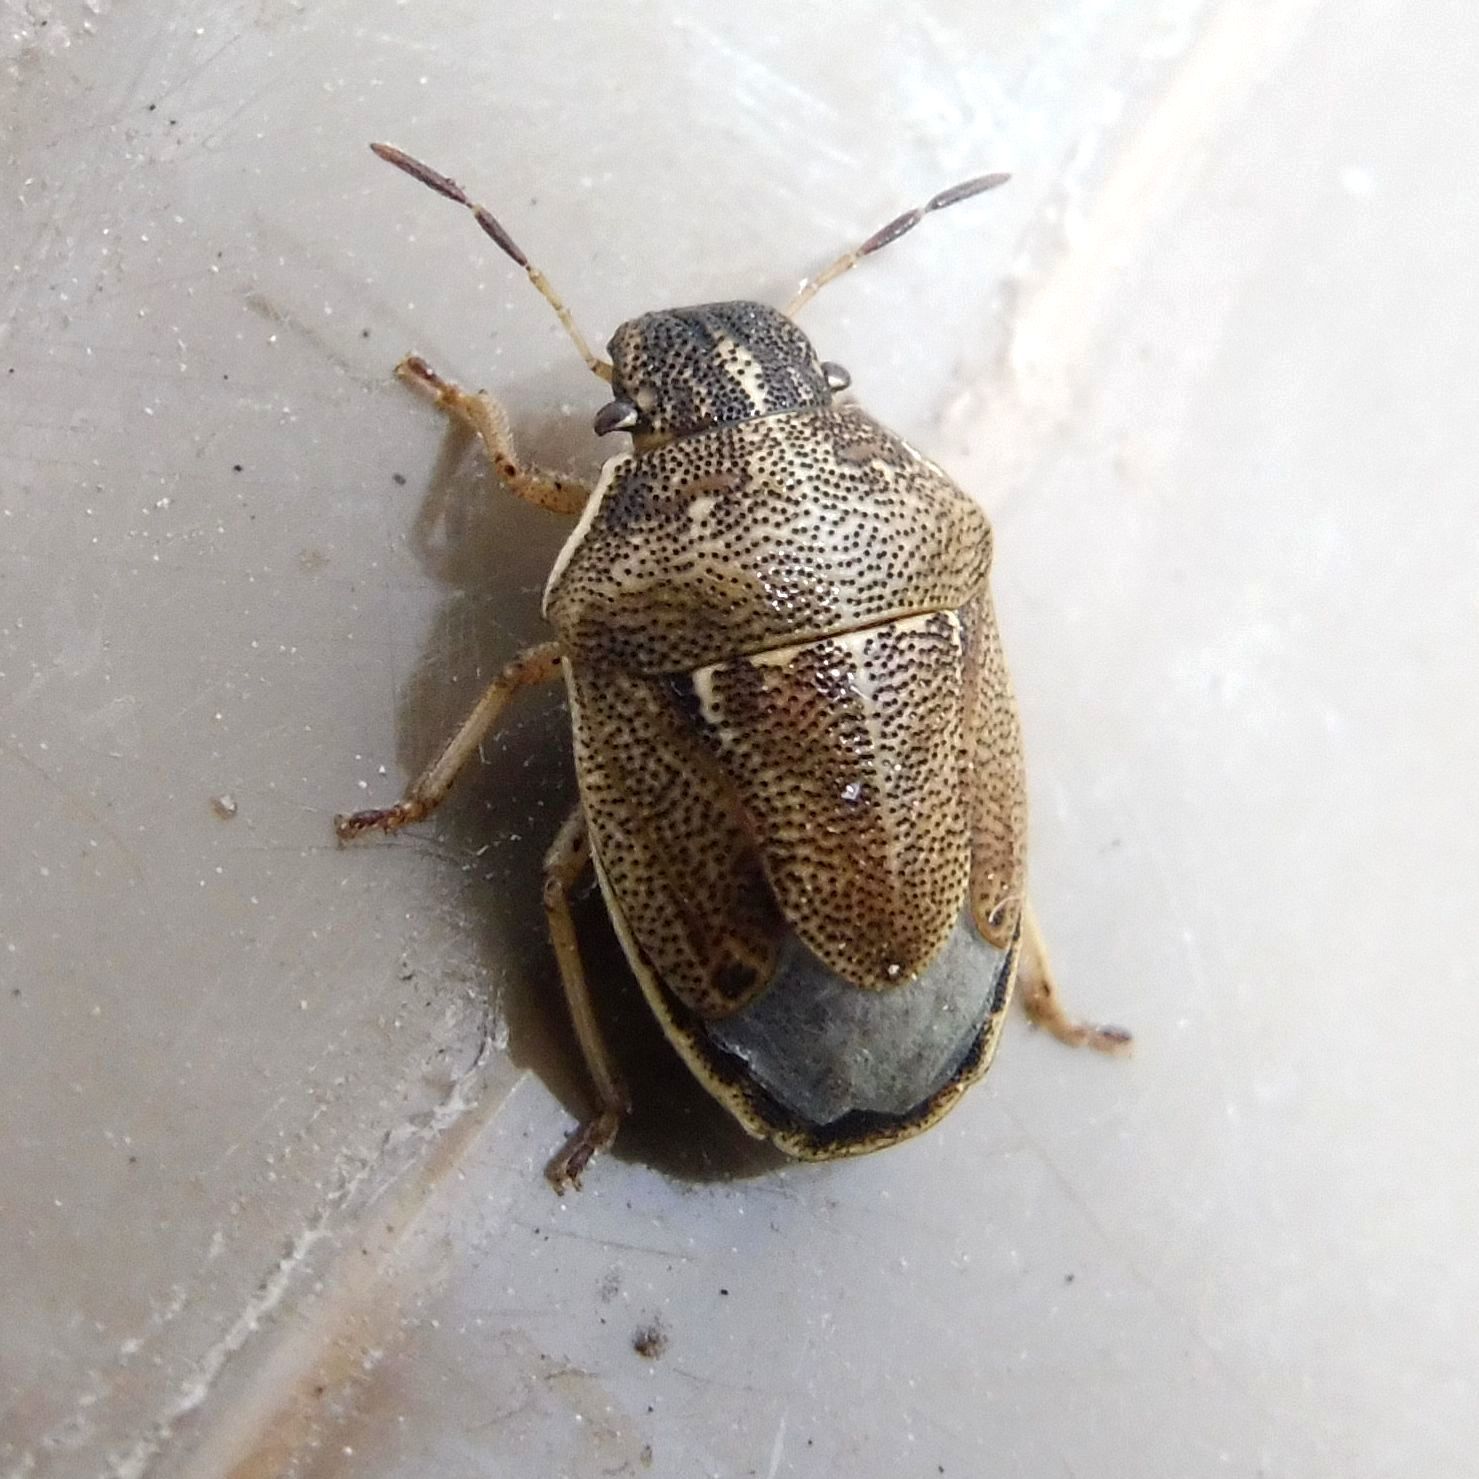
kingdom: Animalia
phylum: Arthropoda
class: Insecta
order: Hemiptera
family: Pentatomidae
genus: Neottiglossa
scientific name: Neottiglossa pusilla
